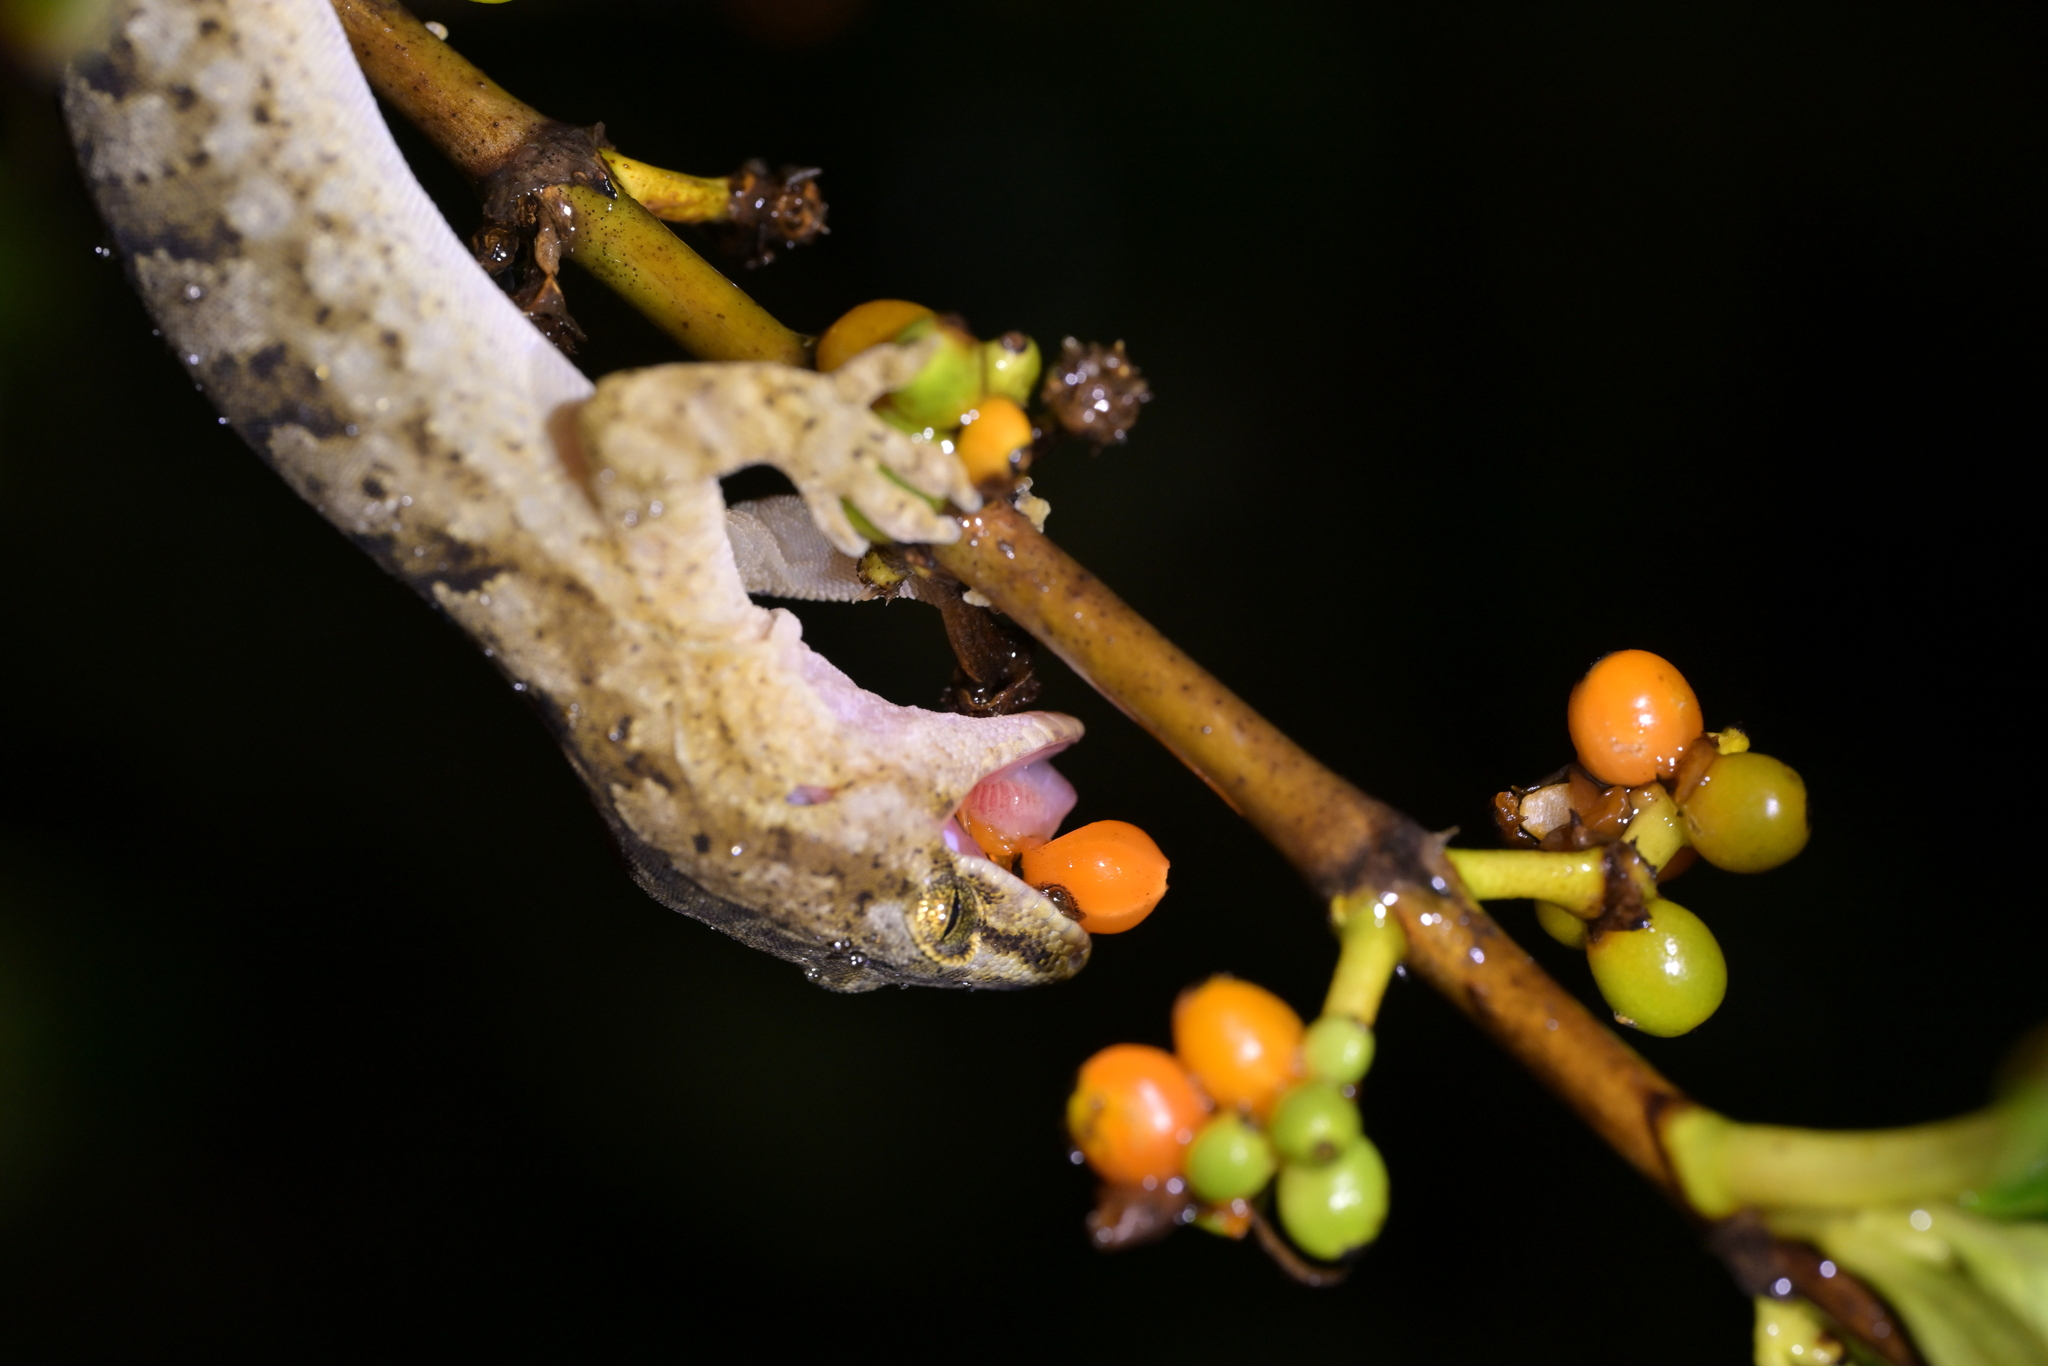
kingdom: Animalia
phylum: Chordata
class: Squamata
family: Diplodactylidae
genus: Woodworthia
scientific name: Woodworthia maculata
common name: Raukawa gecko
